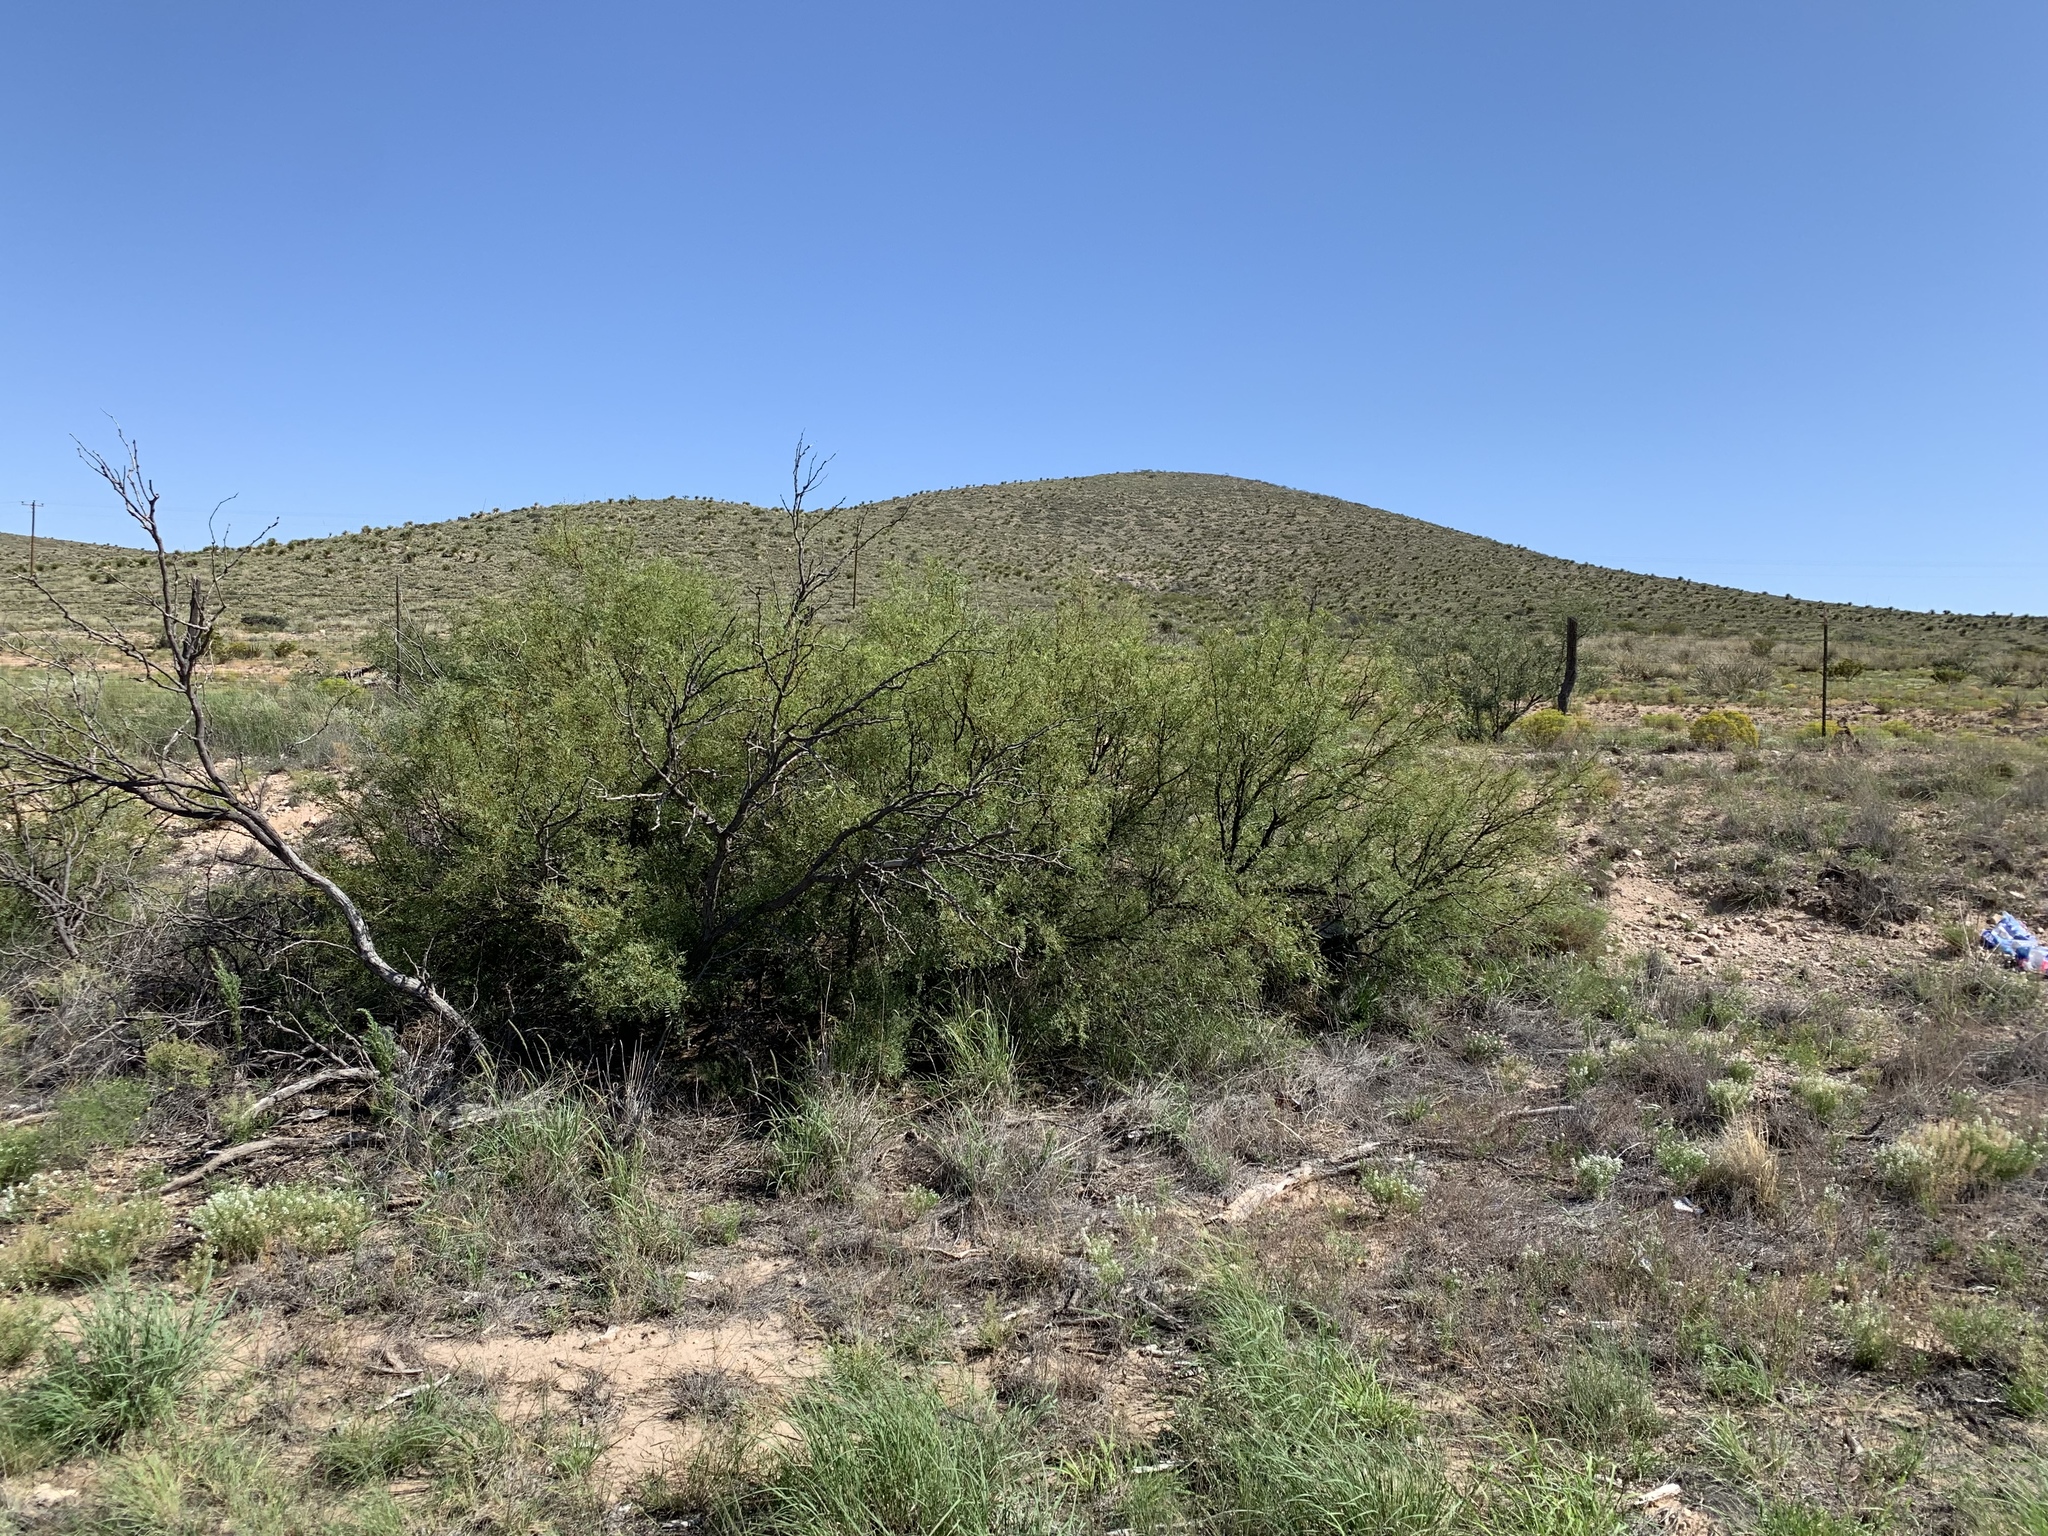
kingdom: Plantae
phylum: Tracheophyta
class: Magnoliopsida
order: Fabales
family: Fabaceae
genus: Prosopis
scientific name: Prosopis glandulosa
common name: Honey mesquite
